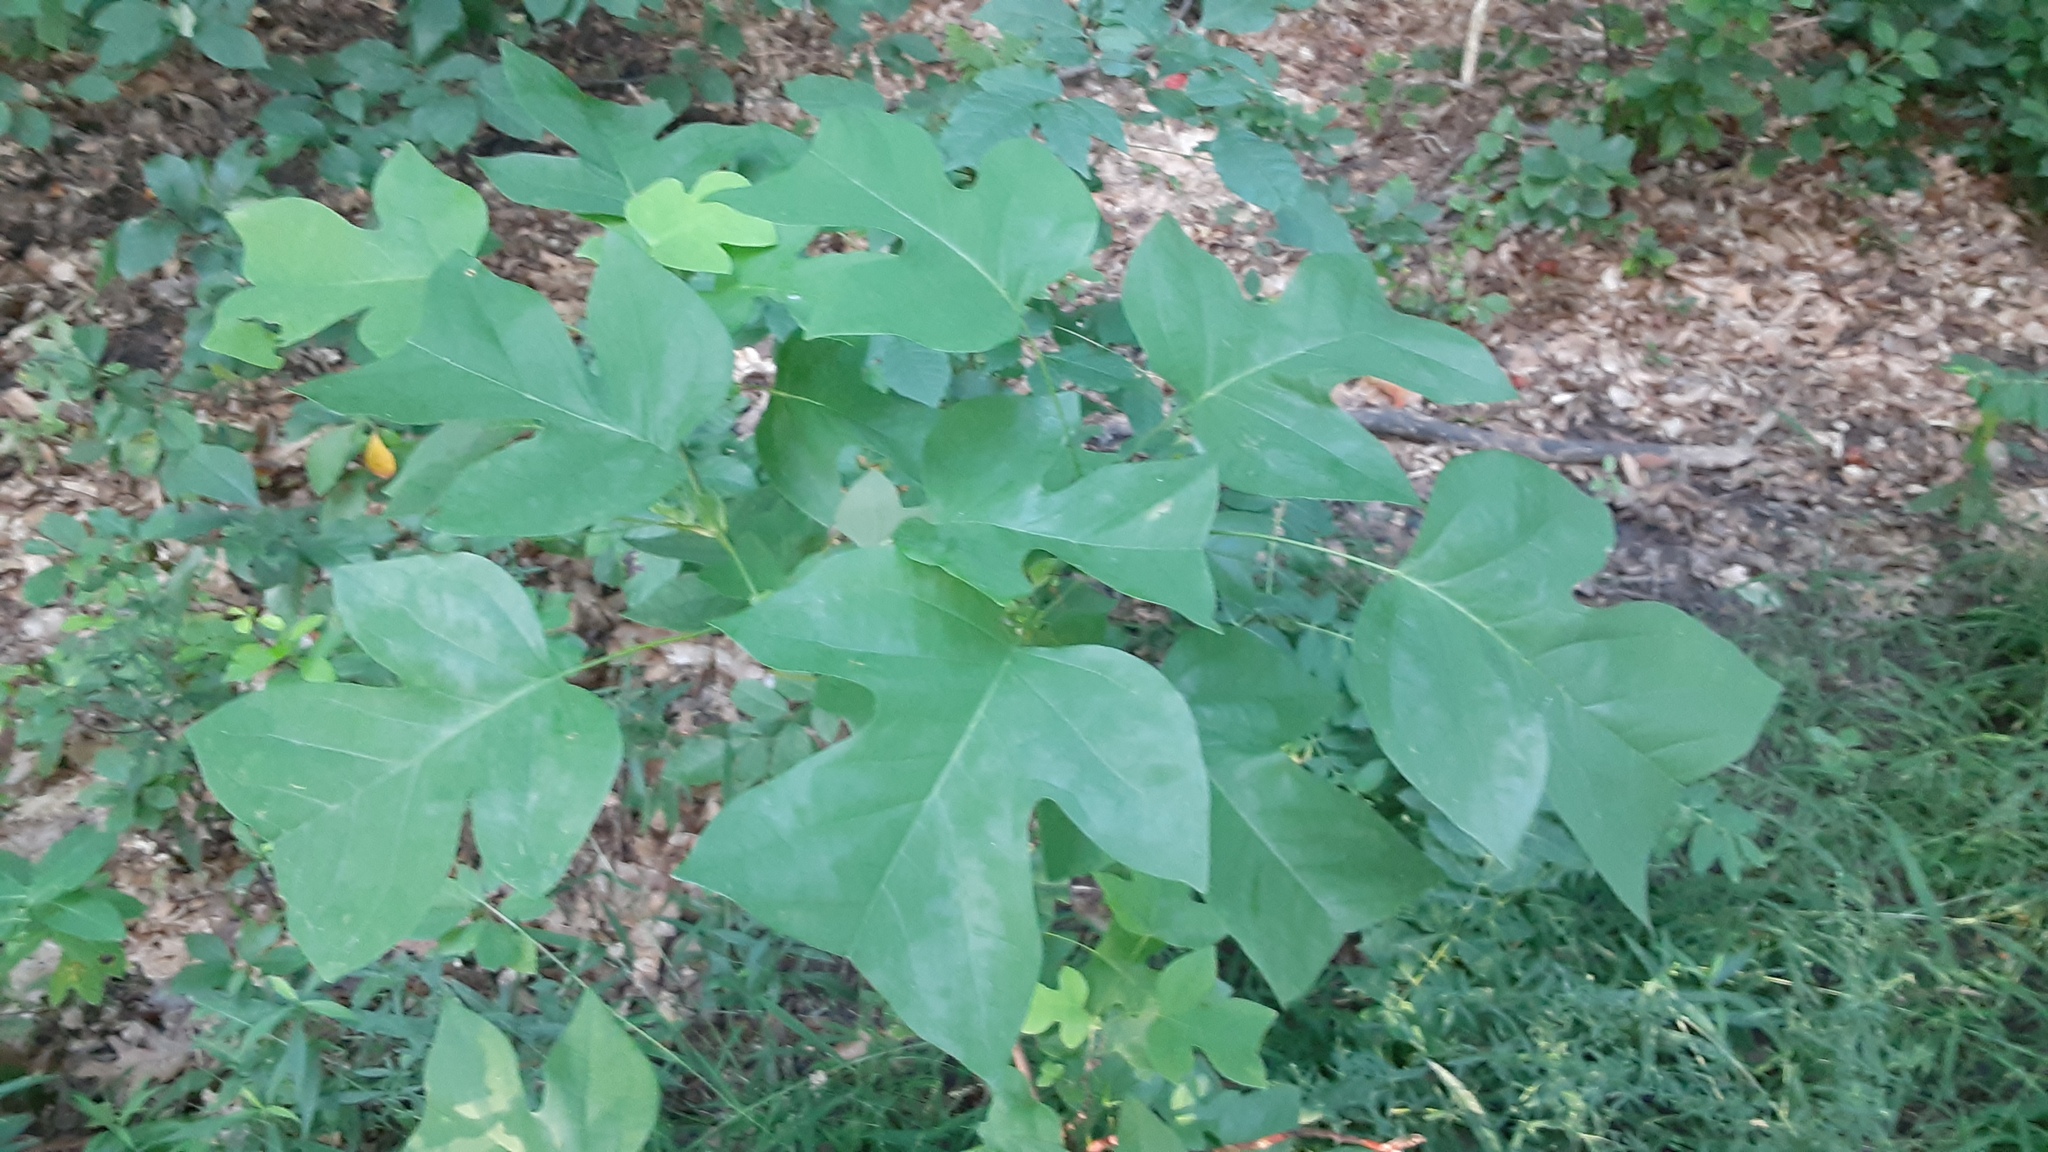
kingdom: Plantae
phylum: Tracheophyta
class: Magnoliopsida
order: Magnoliales
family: Magnoliaceae
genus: Liriodendron
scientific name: Liriodendron tulipifera
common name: Tulip tree
